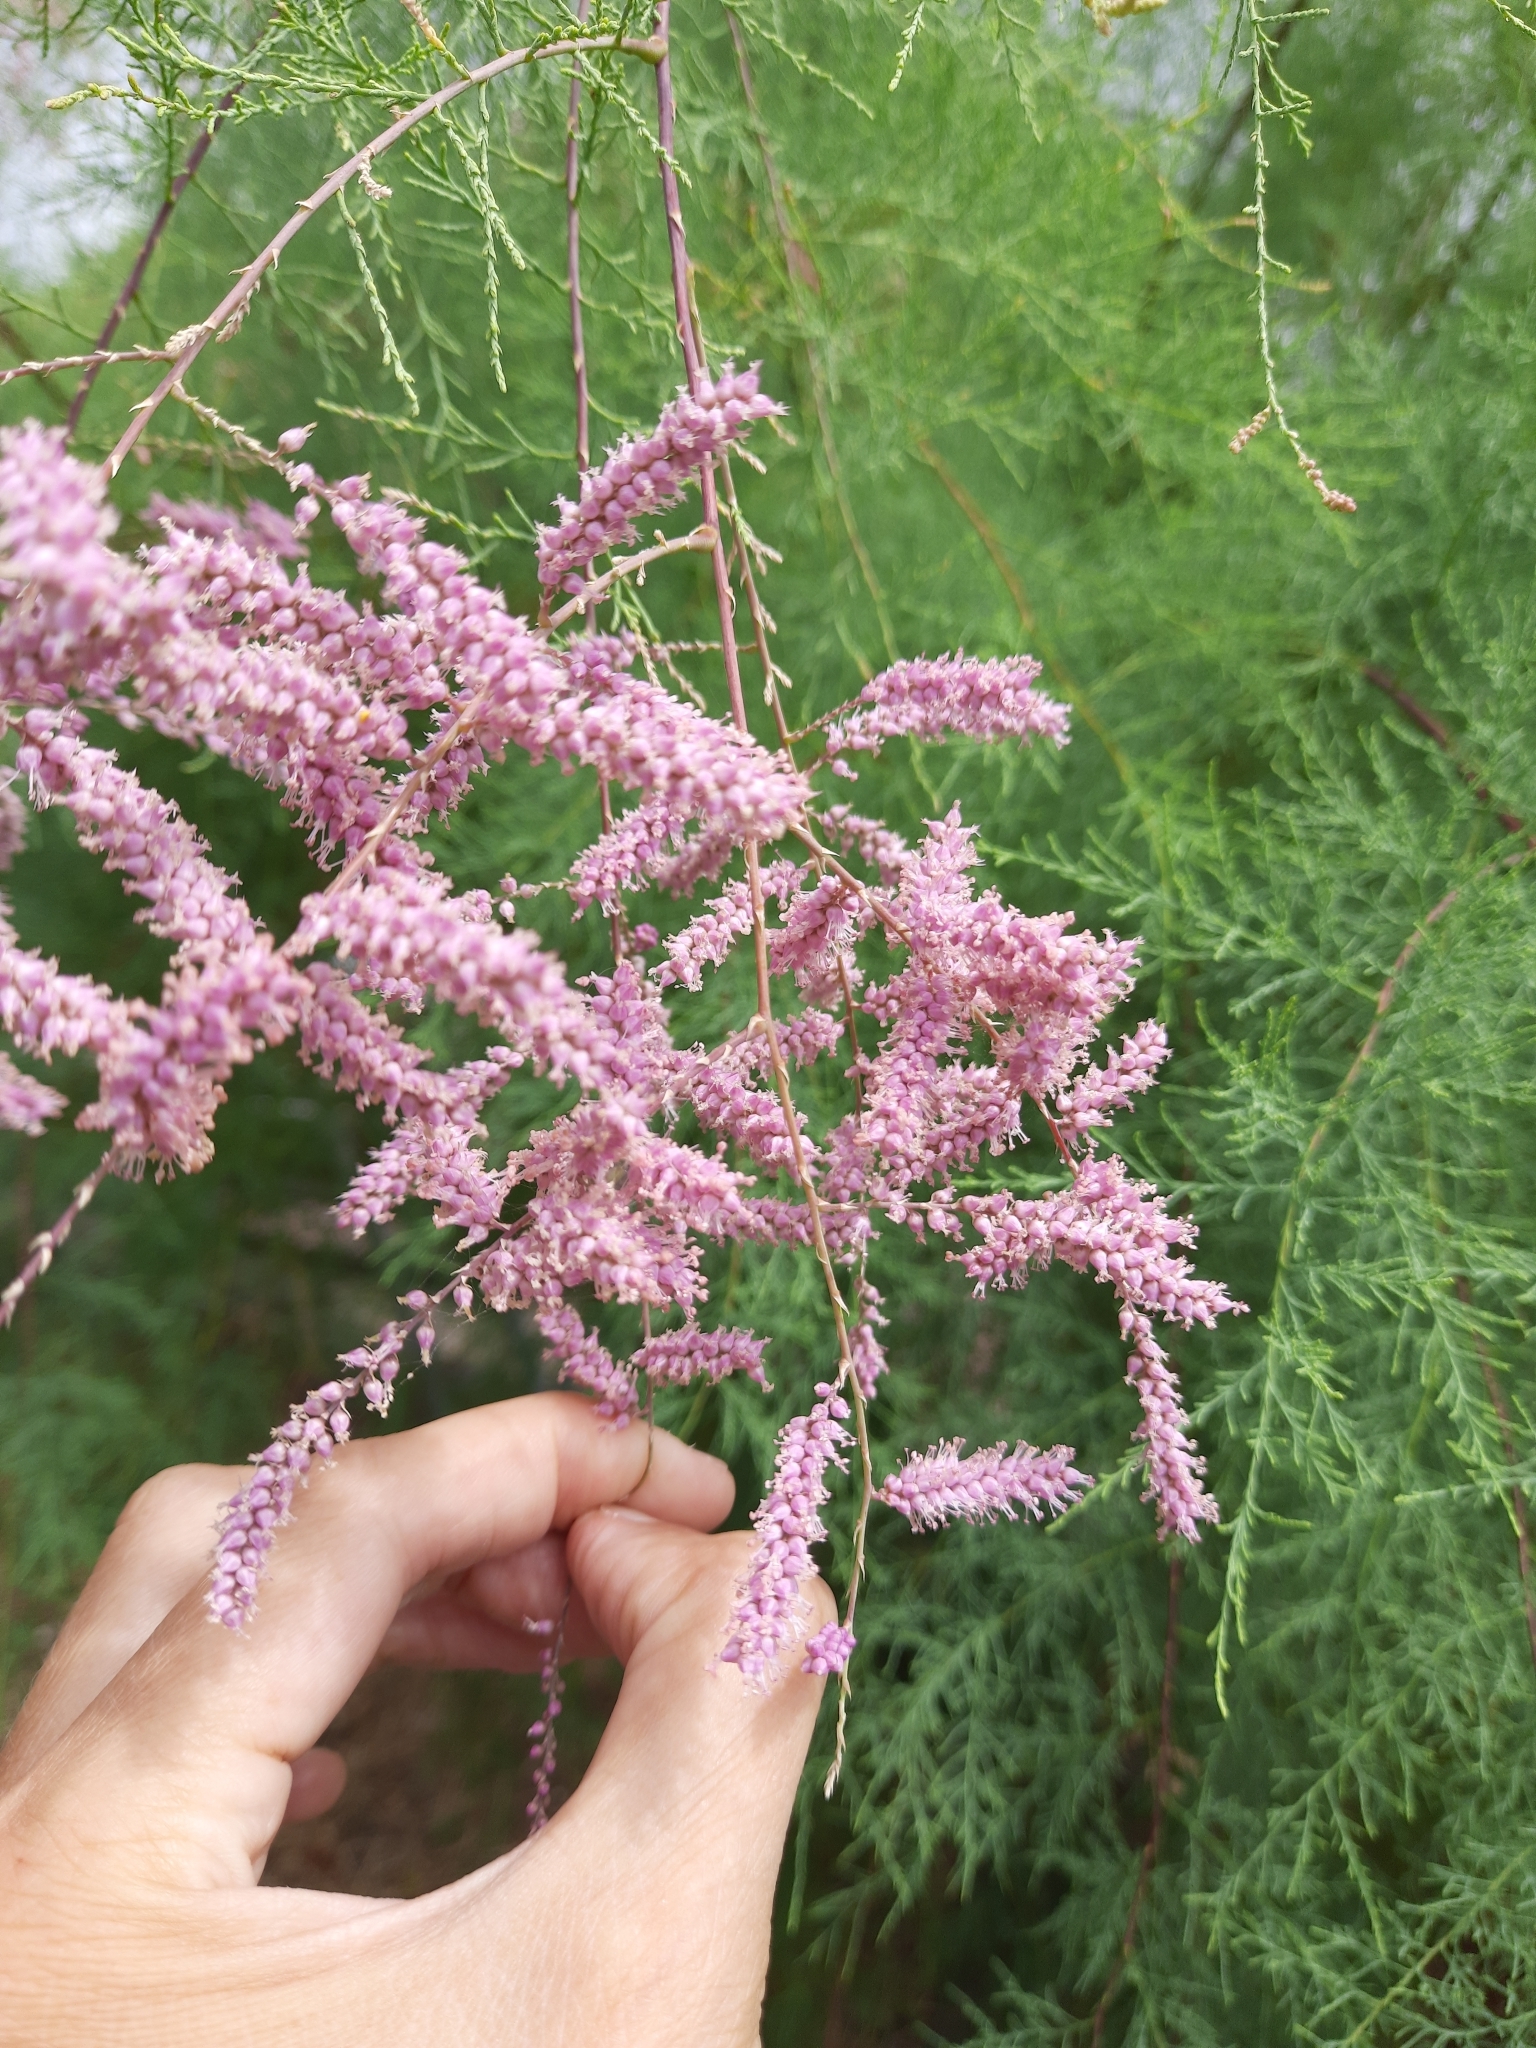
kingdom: Plantae
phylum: Tracheophyta
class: Magnoliopsida
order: Caryophyllales
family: Tamaricaceae
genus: Tamarix
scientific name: Tamarix ramosissima
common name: Pink tamarisk
